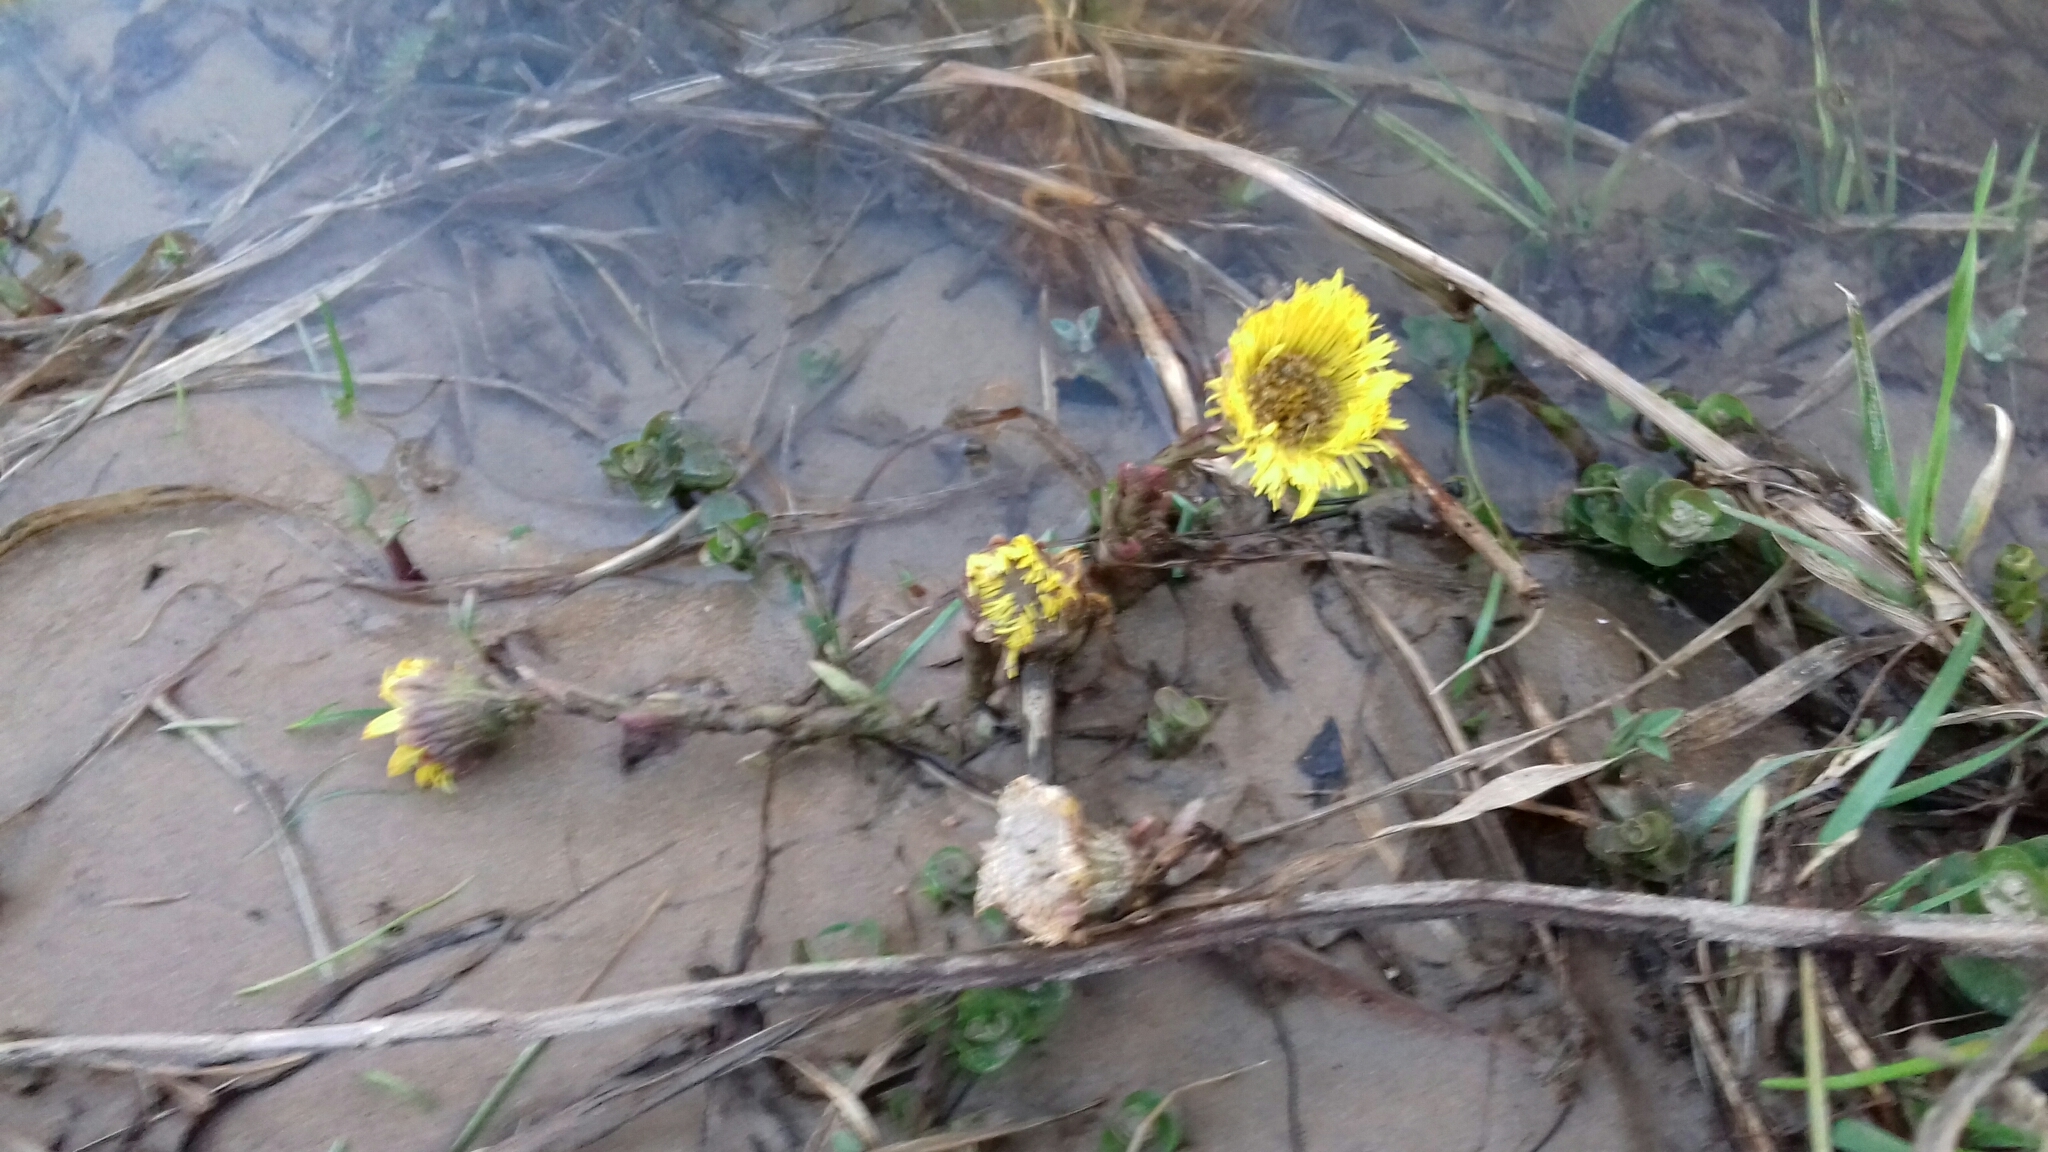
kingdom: Plantae
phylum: Tracheophyta
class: Magnoliopsida
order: Asterales
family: Asteraceae
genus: Tussilago
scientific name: Tussilago farfara
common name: Coltsfoot
